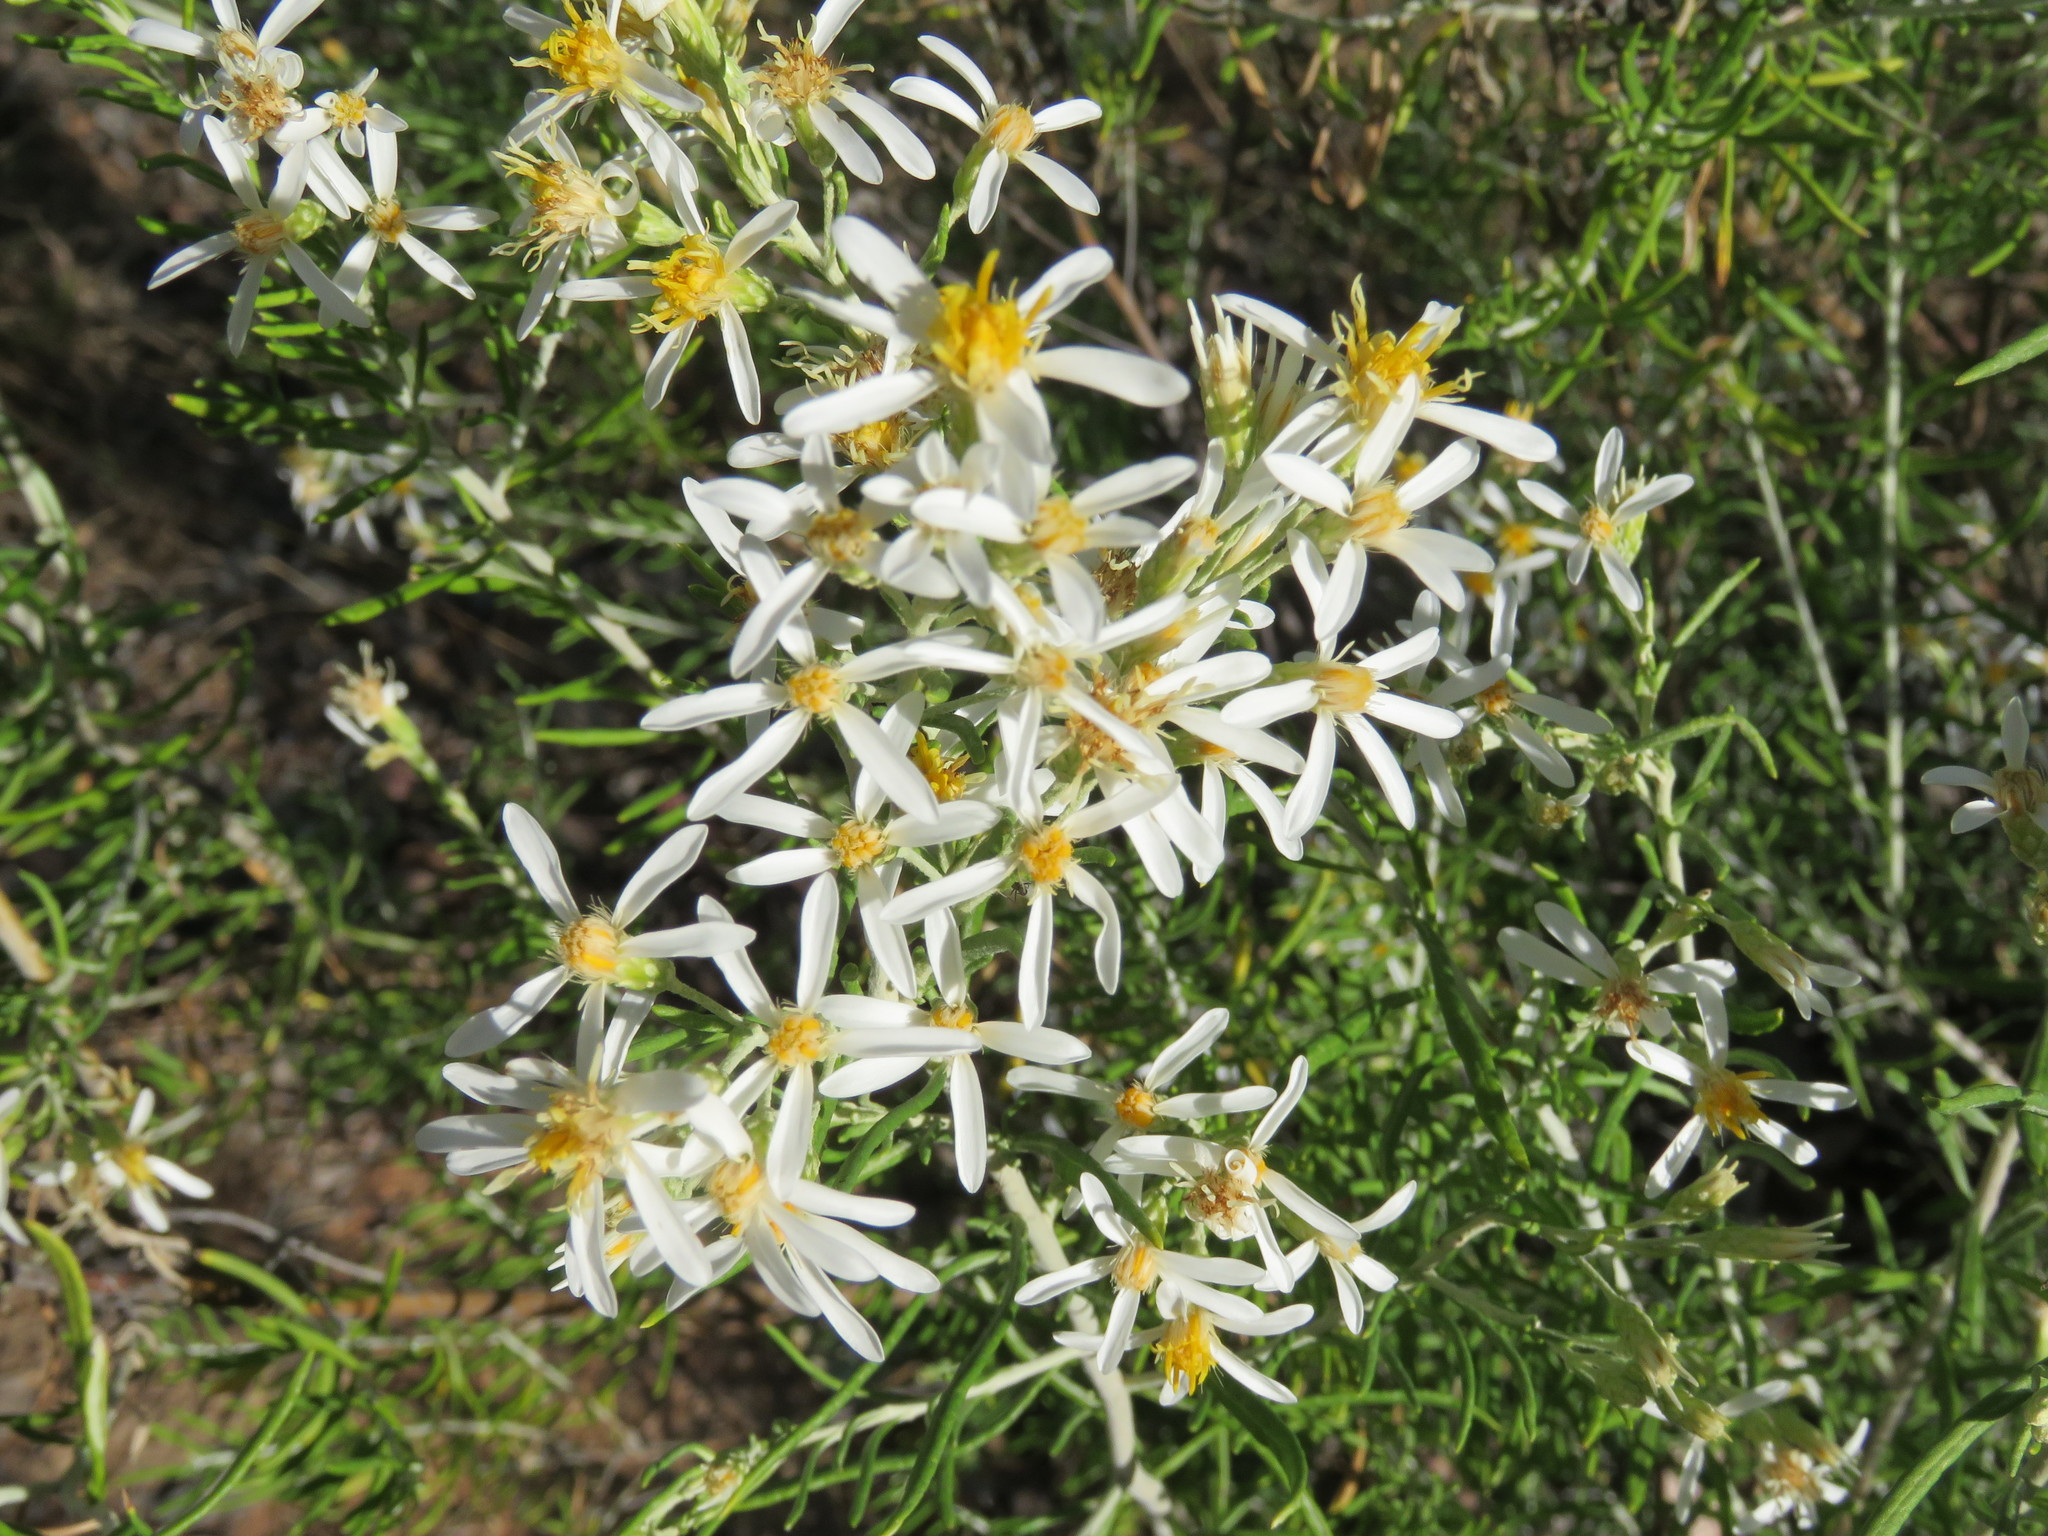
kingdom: Plantae
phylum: Tracheophyta
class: Magnoliopsida
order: Asterales
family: Asteraceae
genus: Olearia
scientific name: Olearia subspicata
